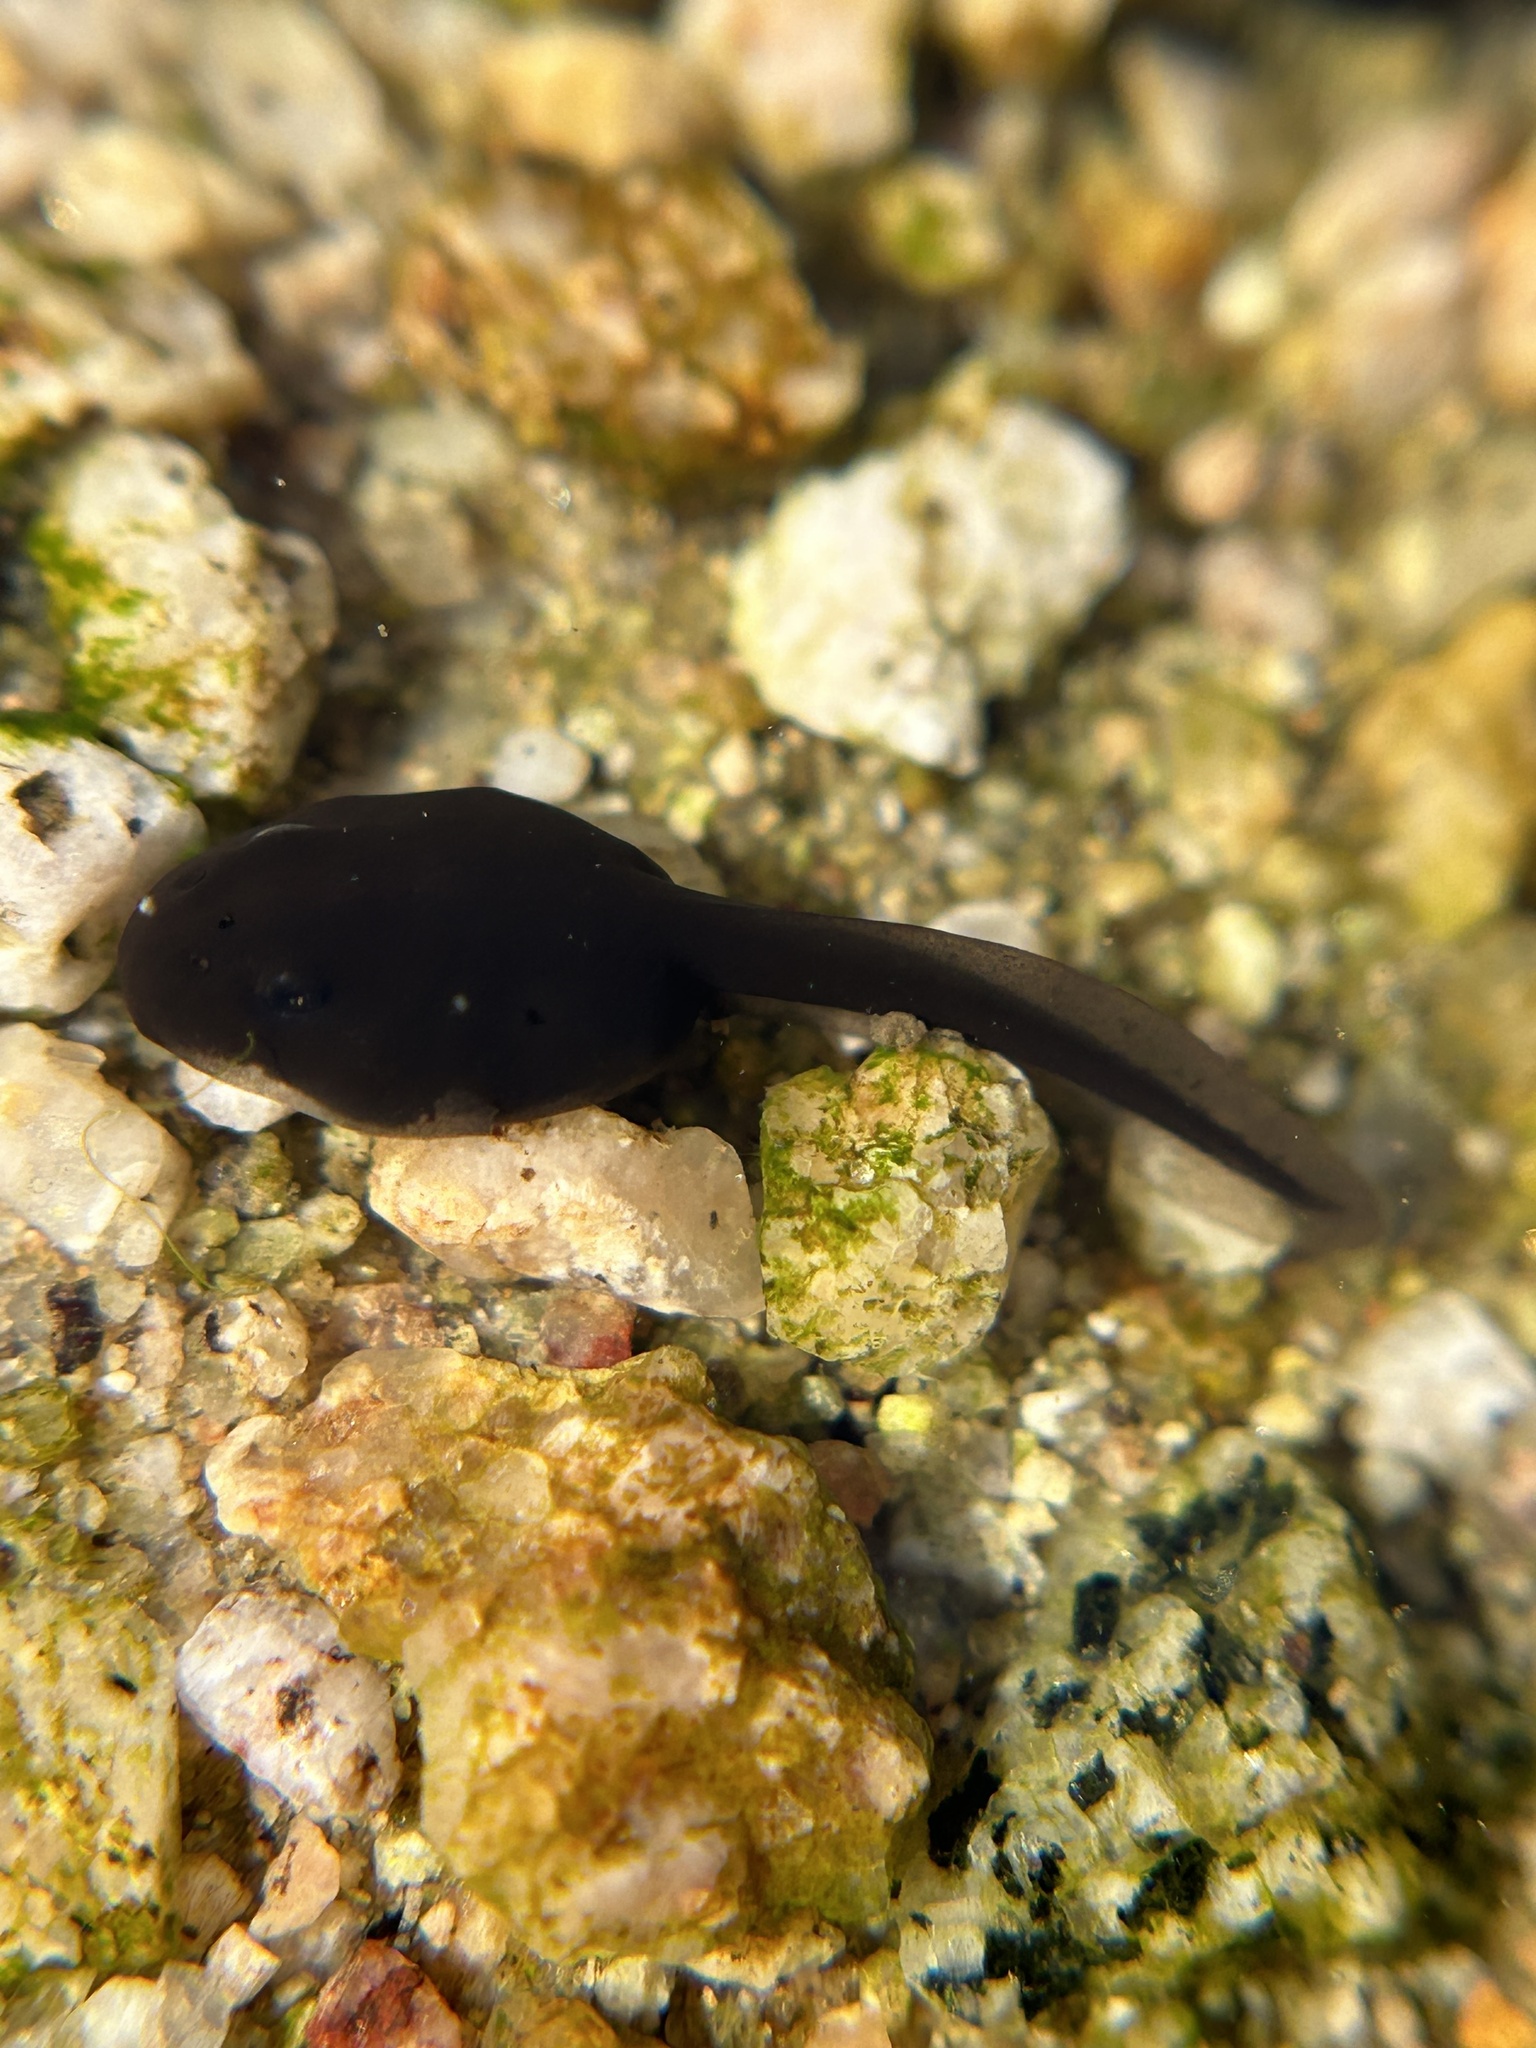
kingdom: Animalia
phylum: Chordata
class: Amphibia
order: Anura
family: Bufonidae
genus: Anaxyrus
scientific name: Anaxyrus boreas
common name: Western toad
